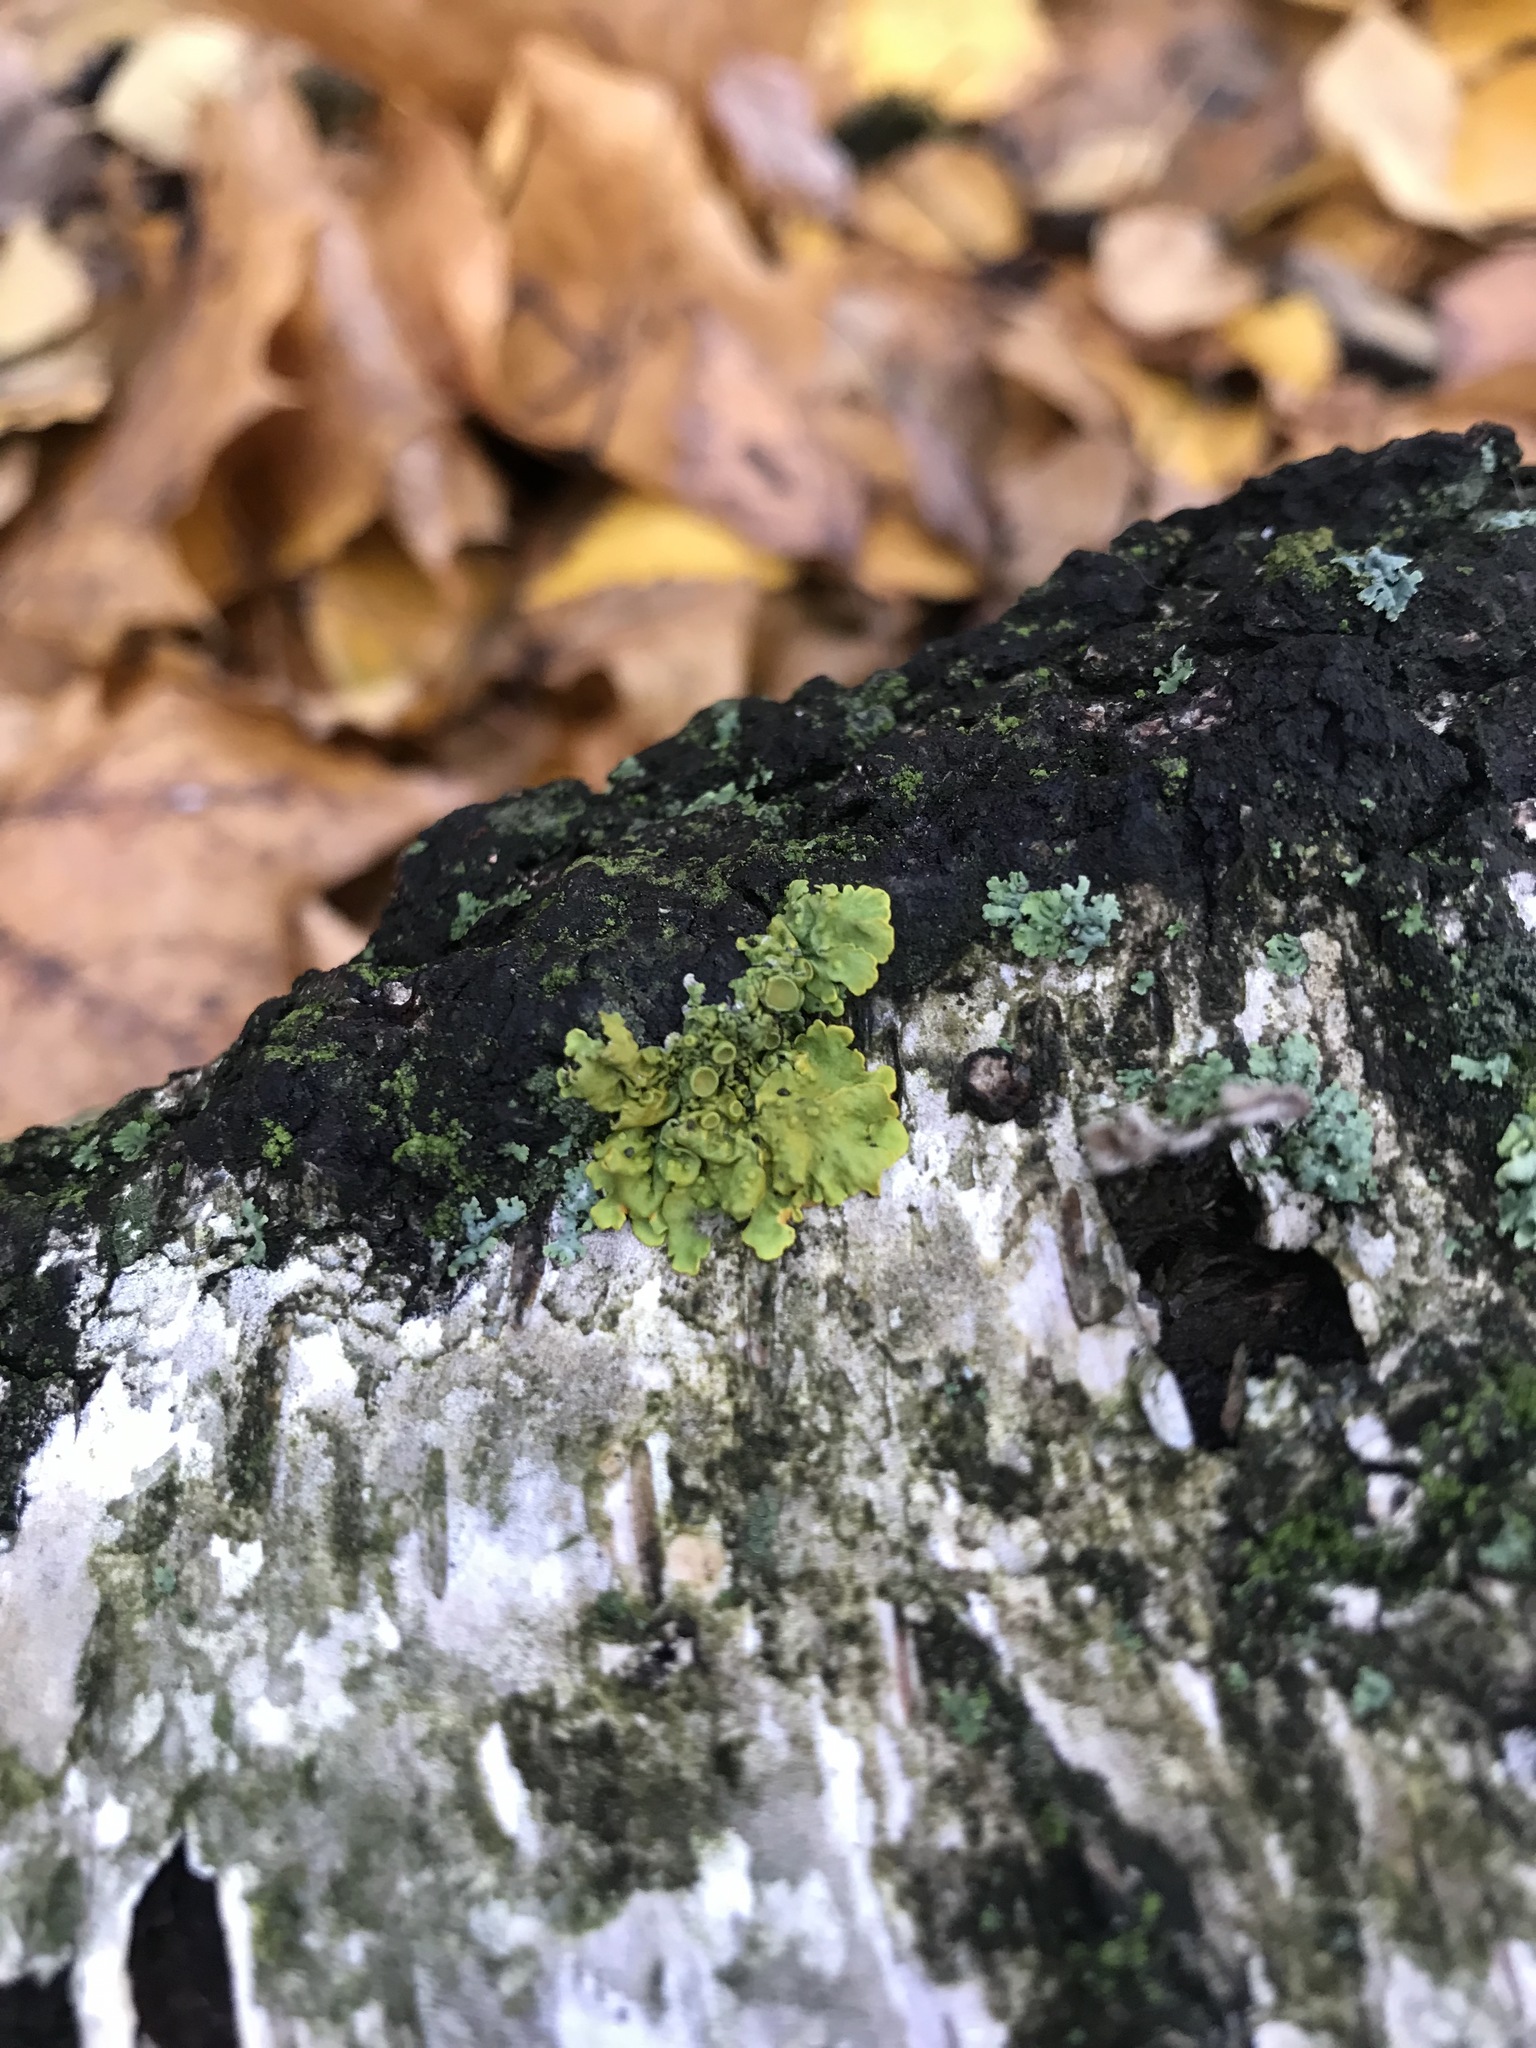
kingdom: Fungi
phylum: Ascomycota
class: Lecanoromycetes
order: Teloschistales
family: Teloschistaceae
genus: Xanthoria
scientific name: Xanthoria parietina
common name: Common orange lichen
